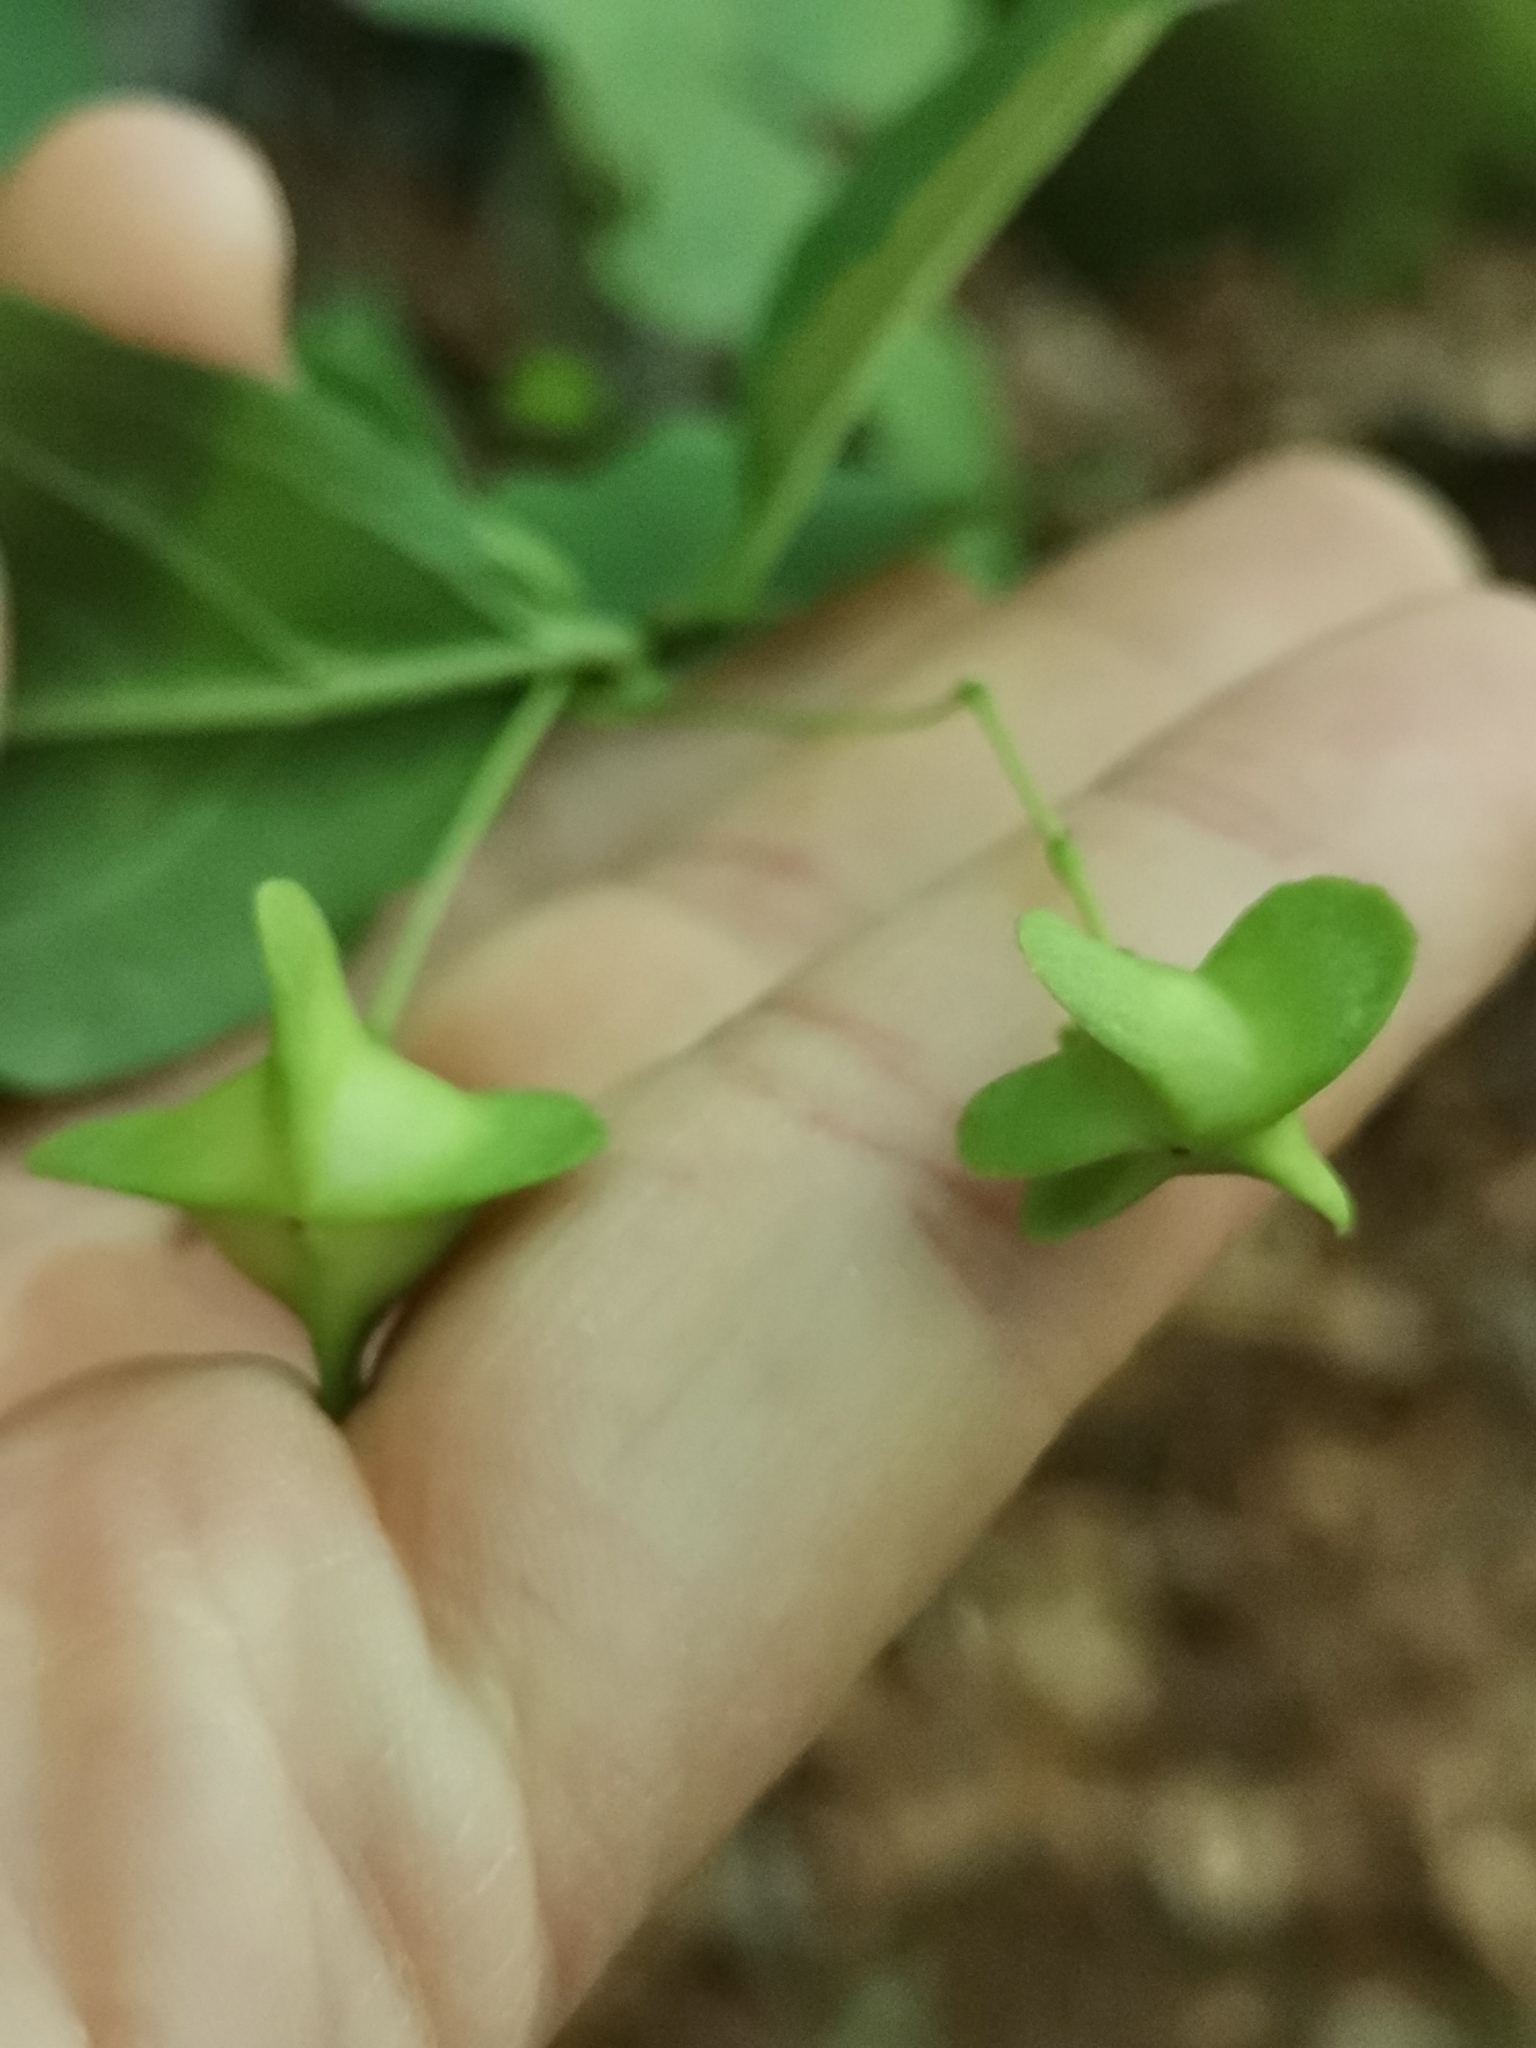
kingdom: Plantae
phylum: Tracheophyta
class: Magnoliopsida
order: Celastrales
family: Celastraceae
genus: Euonymus
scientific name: Euonymus latifolius
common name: Large-leaved spindle
